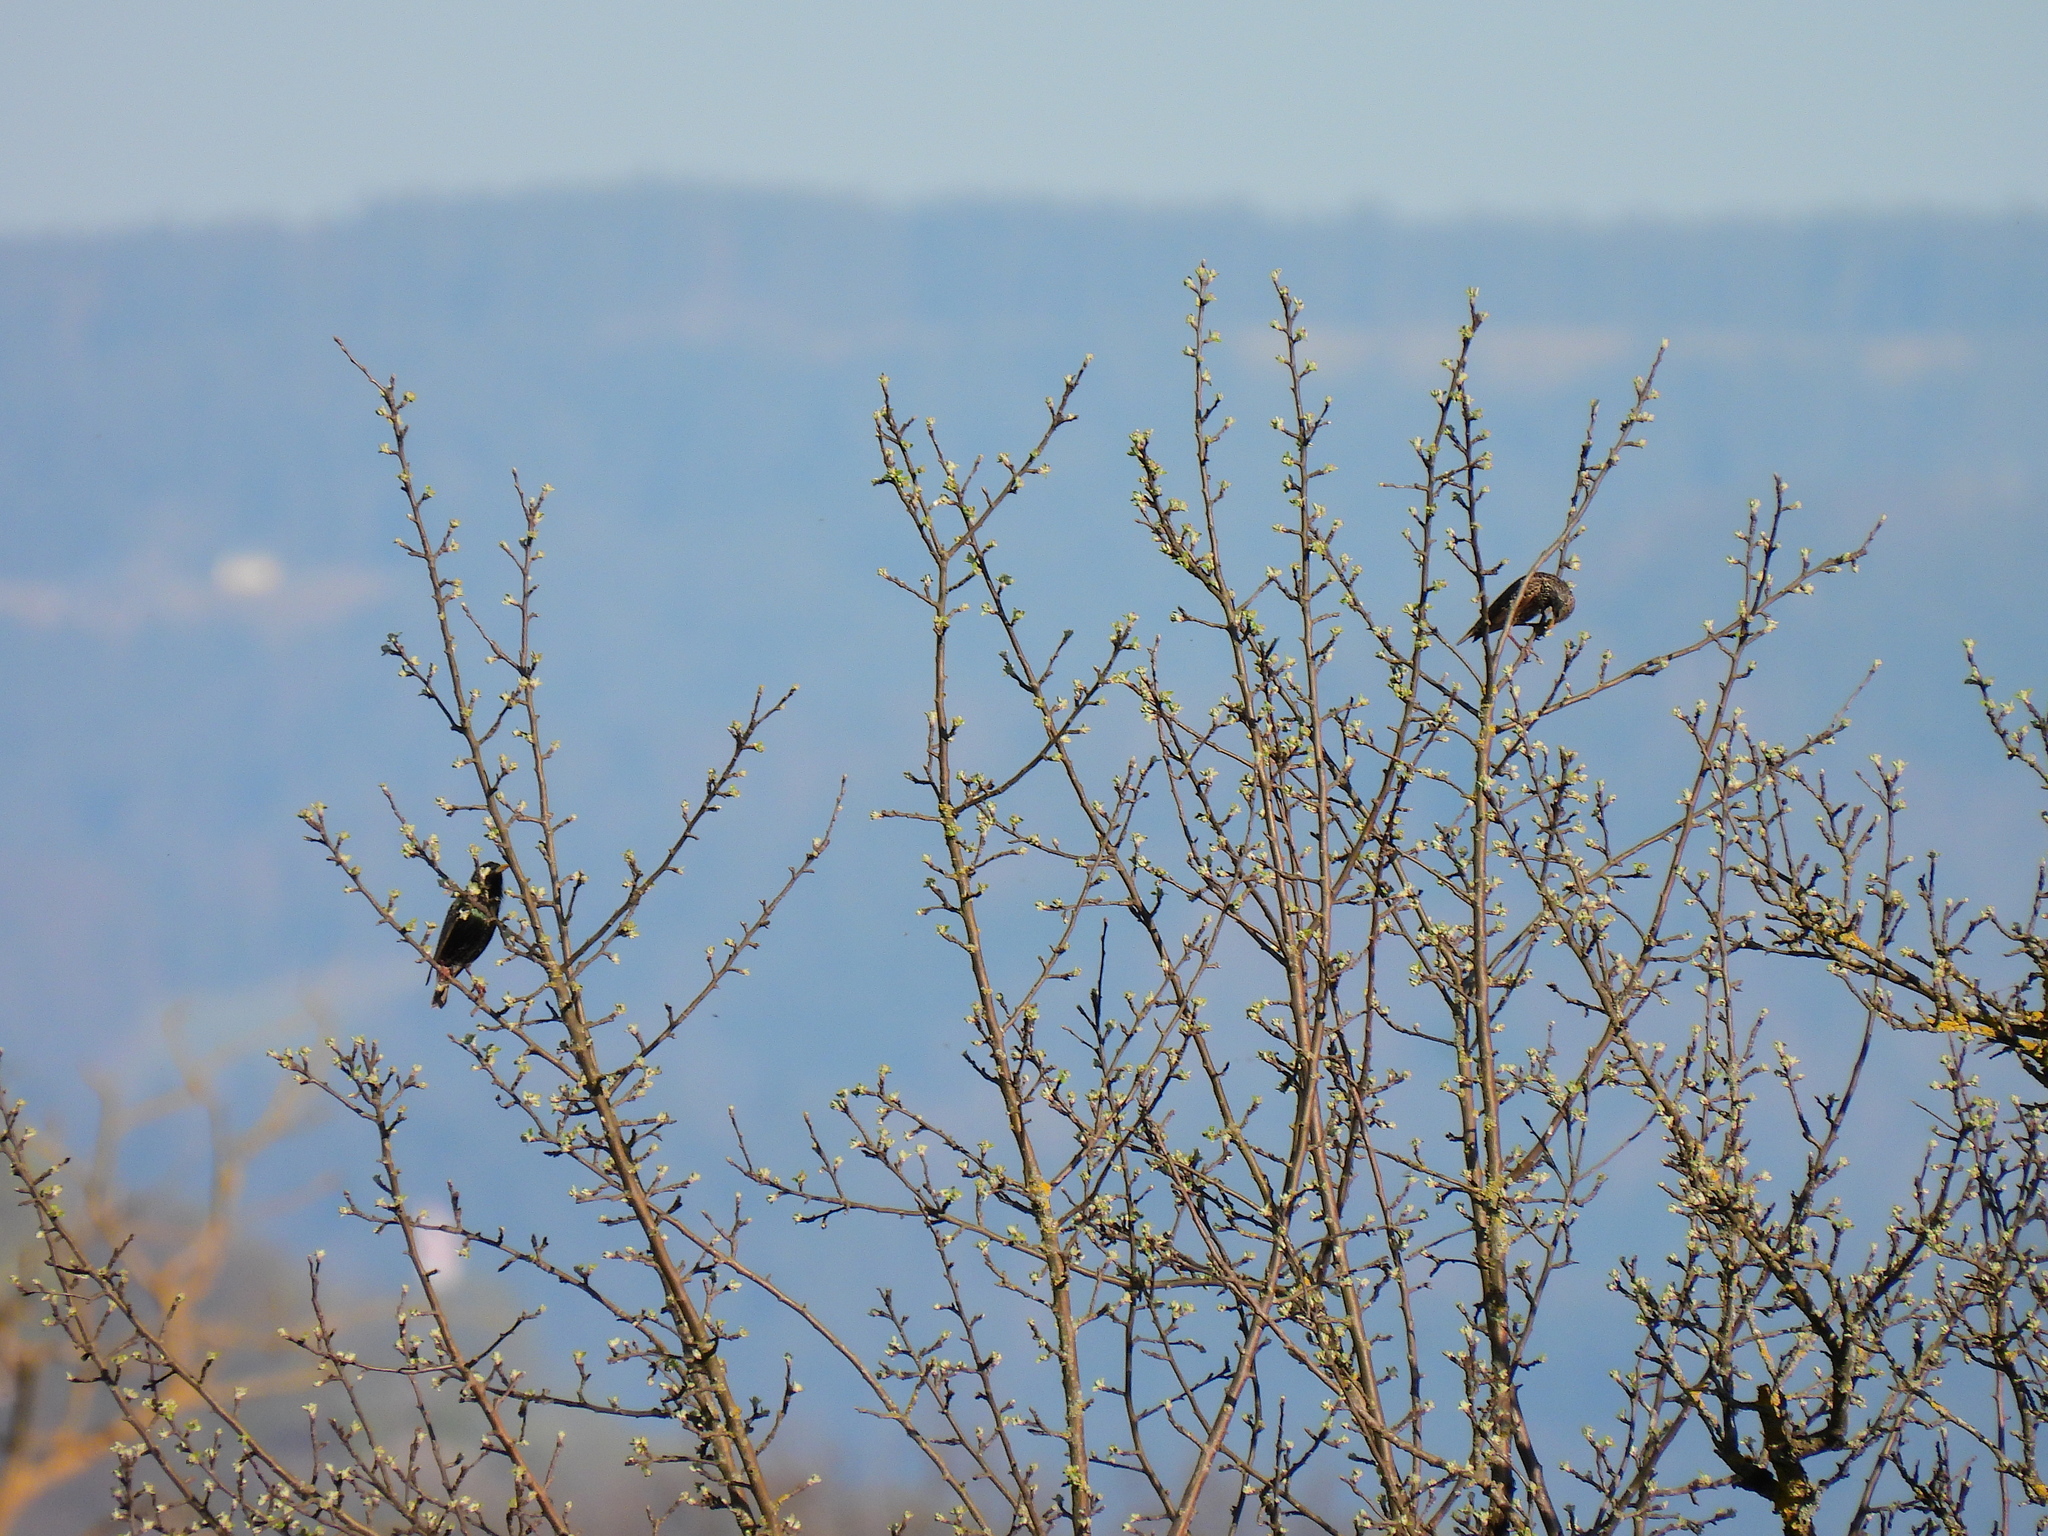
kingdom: Animalia
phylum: Chordata
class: Aves
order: Passeriformes
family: Sturnidae
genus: Sturnus
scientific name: Sturnus vulgaris
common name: Common starling
